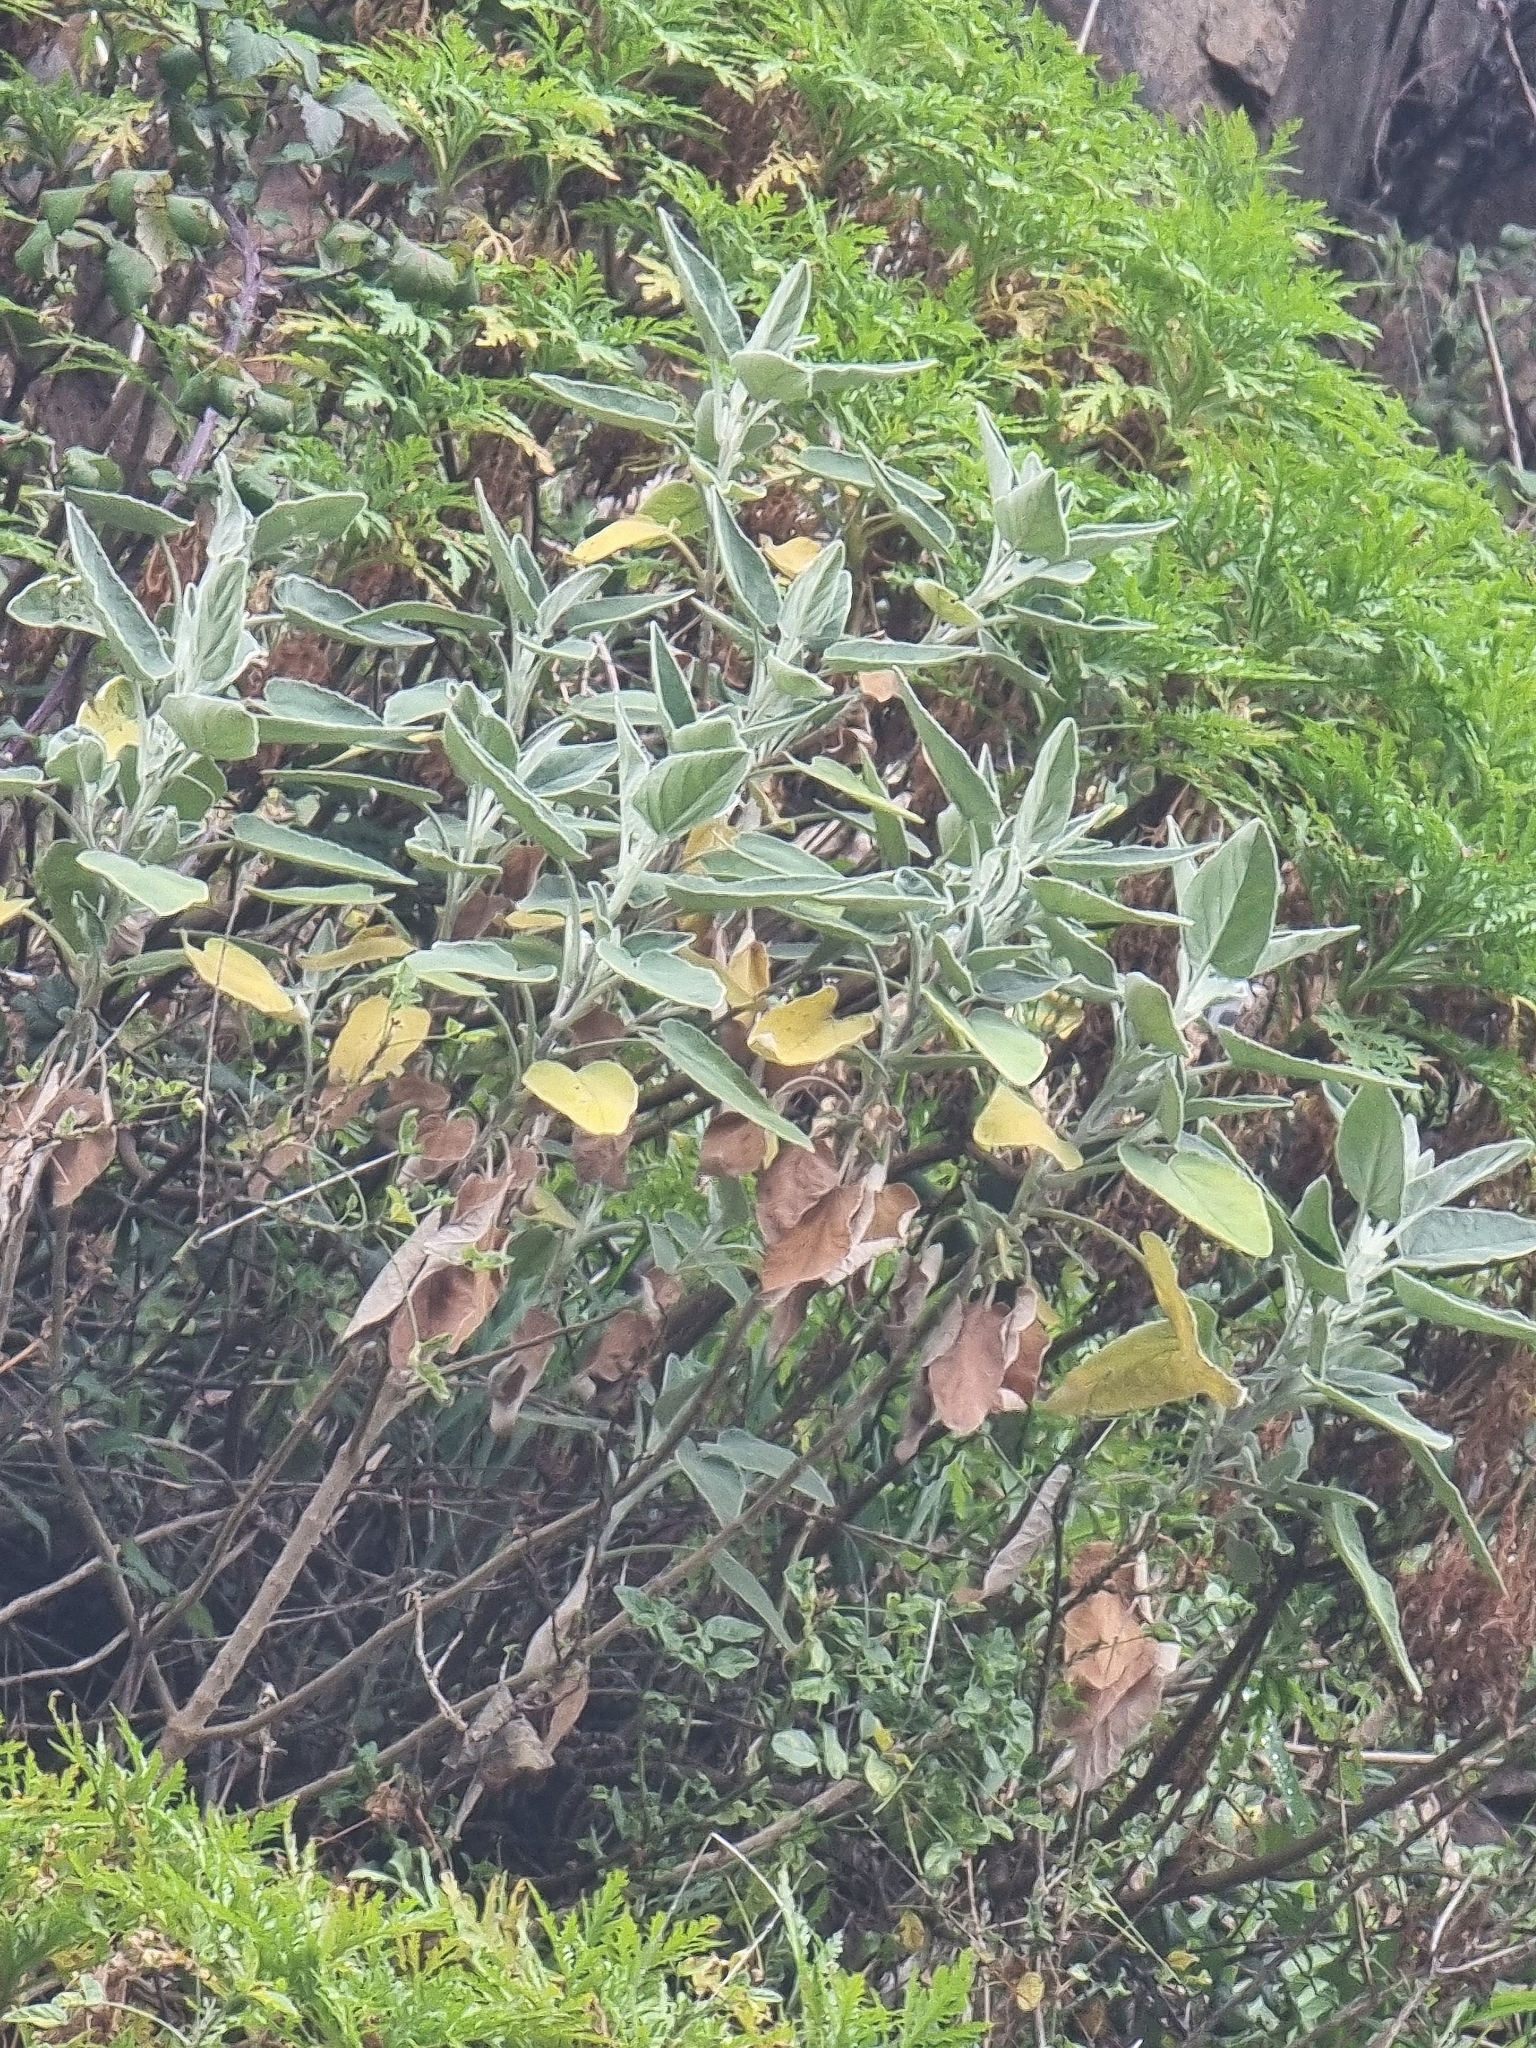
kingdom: Plantae
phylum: Tracheophyta
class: Magnoliopsida
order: Lamiales
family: Lamiaceae
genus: Sideritis
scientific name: Sideritis candicans
